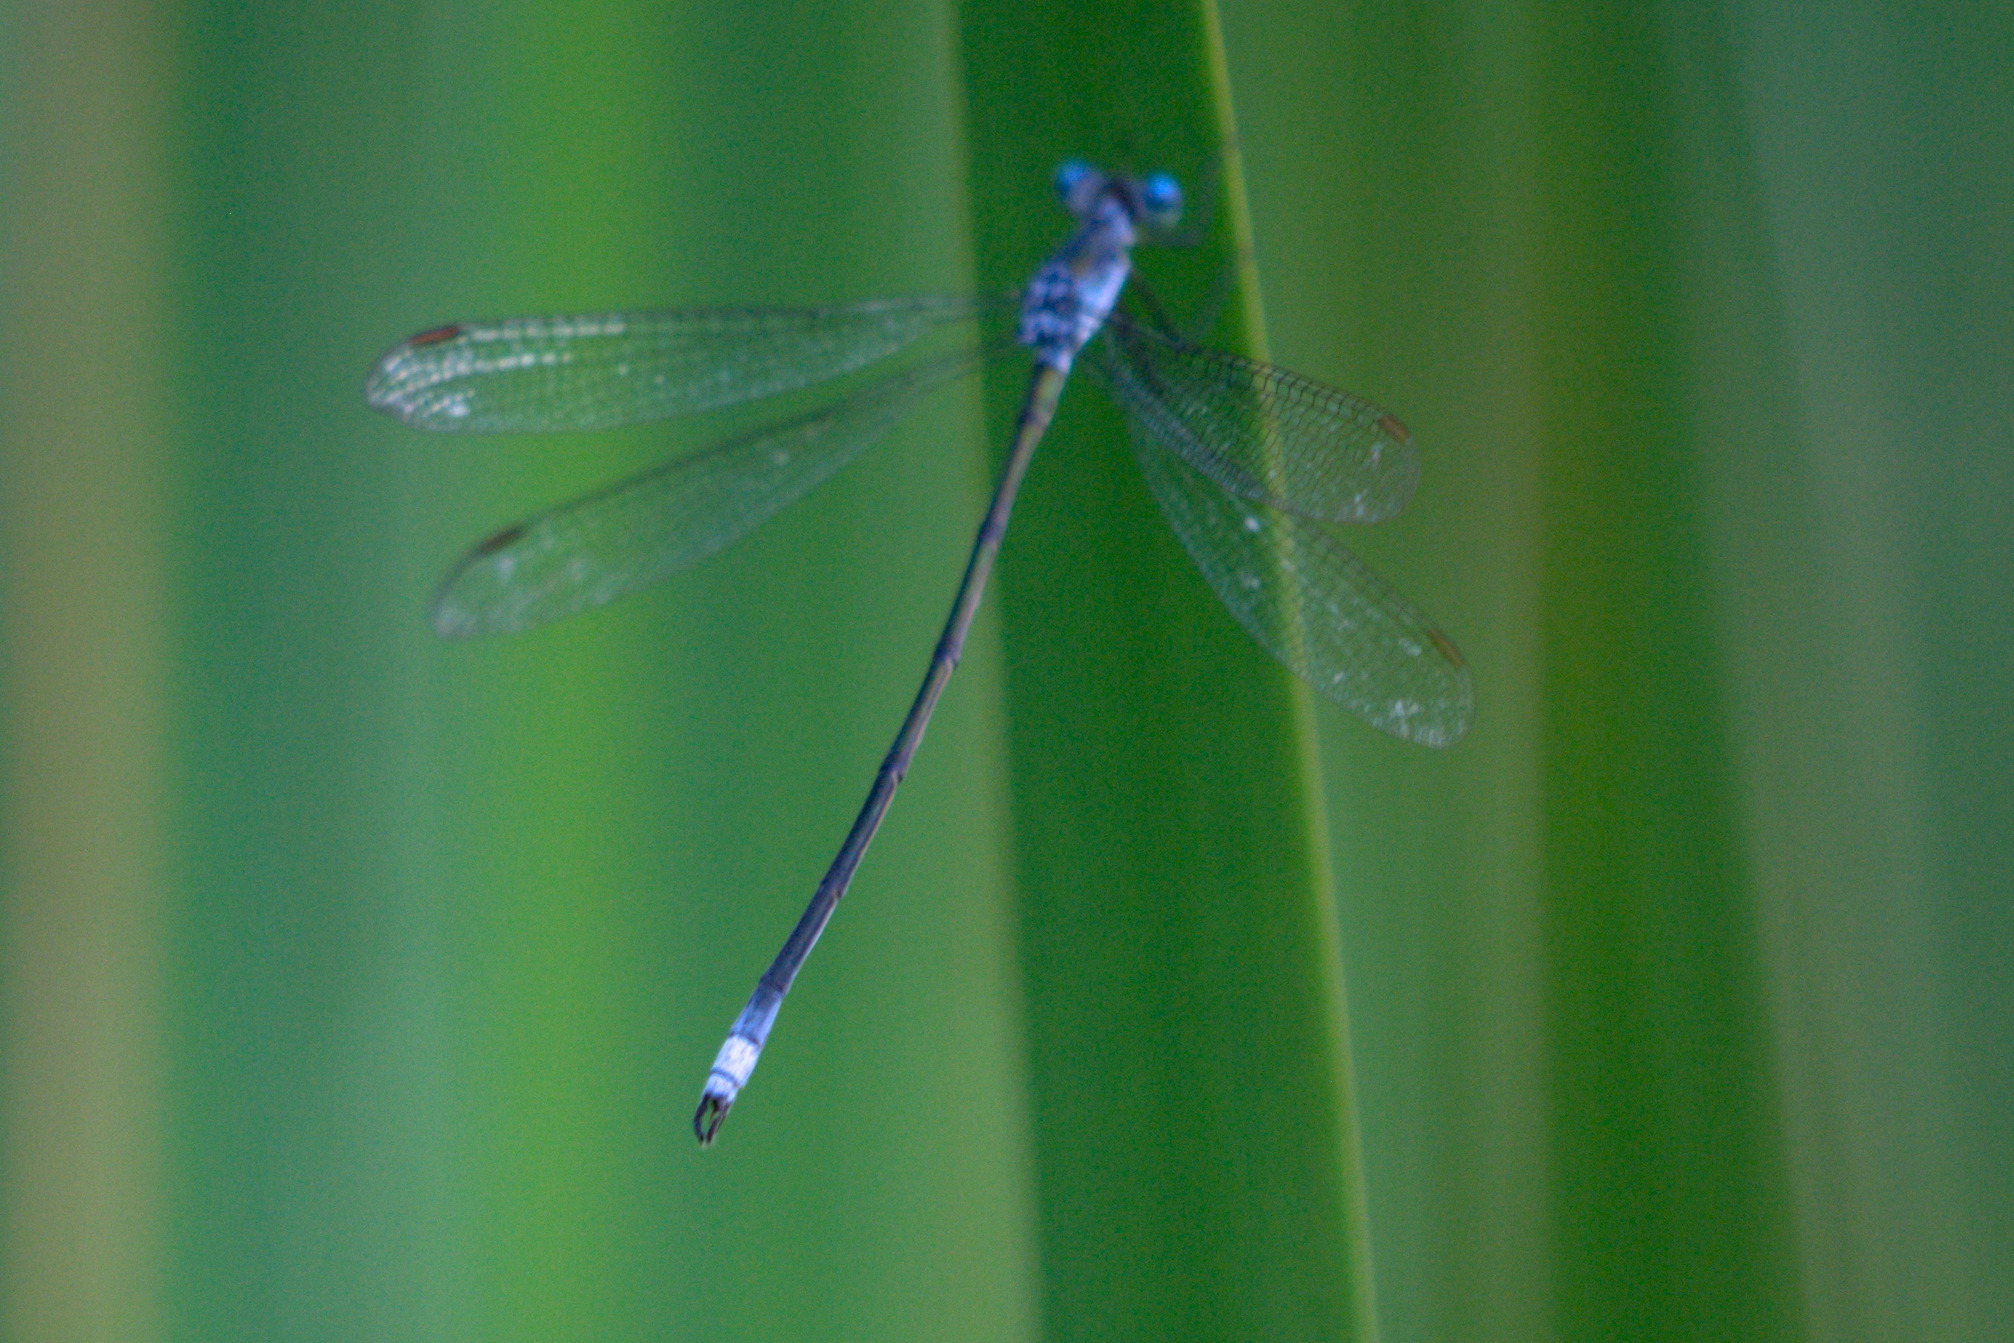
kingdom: Animalia
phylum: Arthropoda
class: Insecta
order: Odonata
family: Lestidae
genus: Lestes
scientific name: Lestes vigilax
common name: Swamp spreadwing
